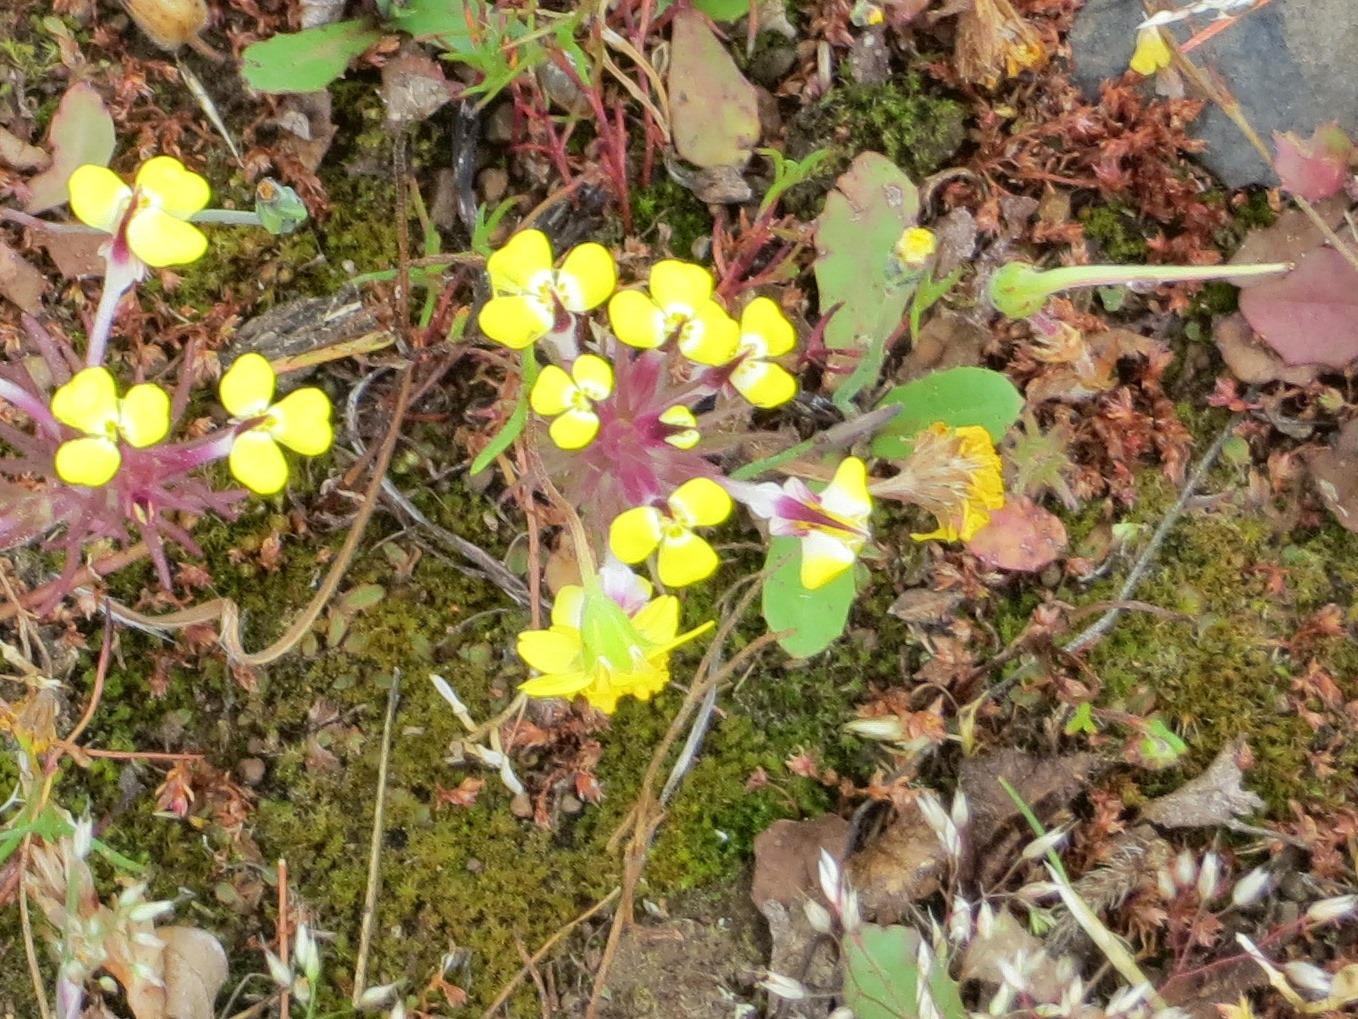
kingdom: Plantae
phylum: Tracheophyta
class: Magnoliopsida
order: Lamiales
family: Orobanchaceae
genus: Triphysaria
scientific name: Triphysaria eriantha
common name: Johnny-tuck
